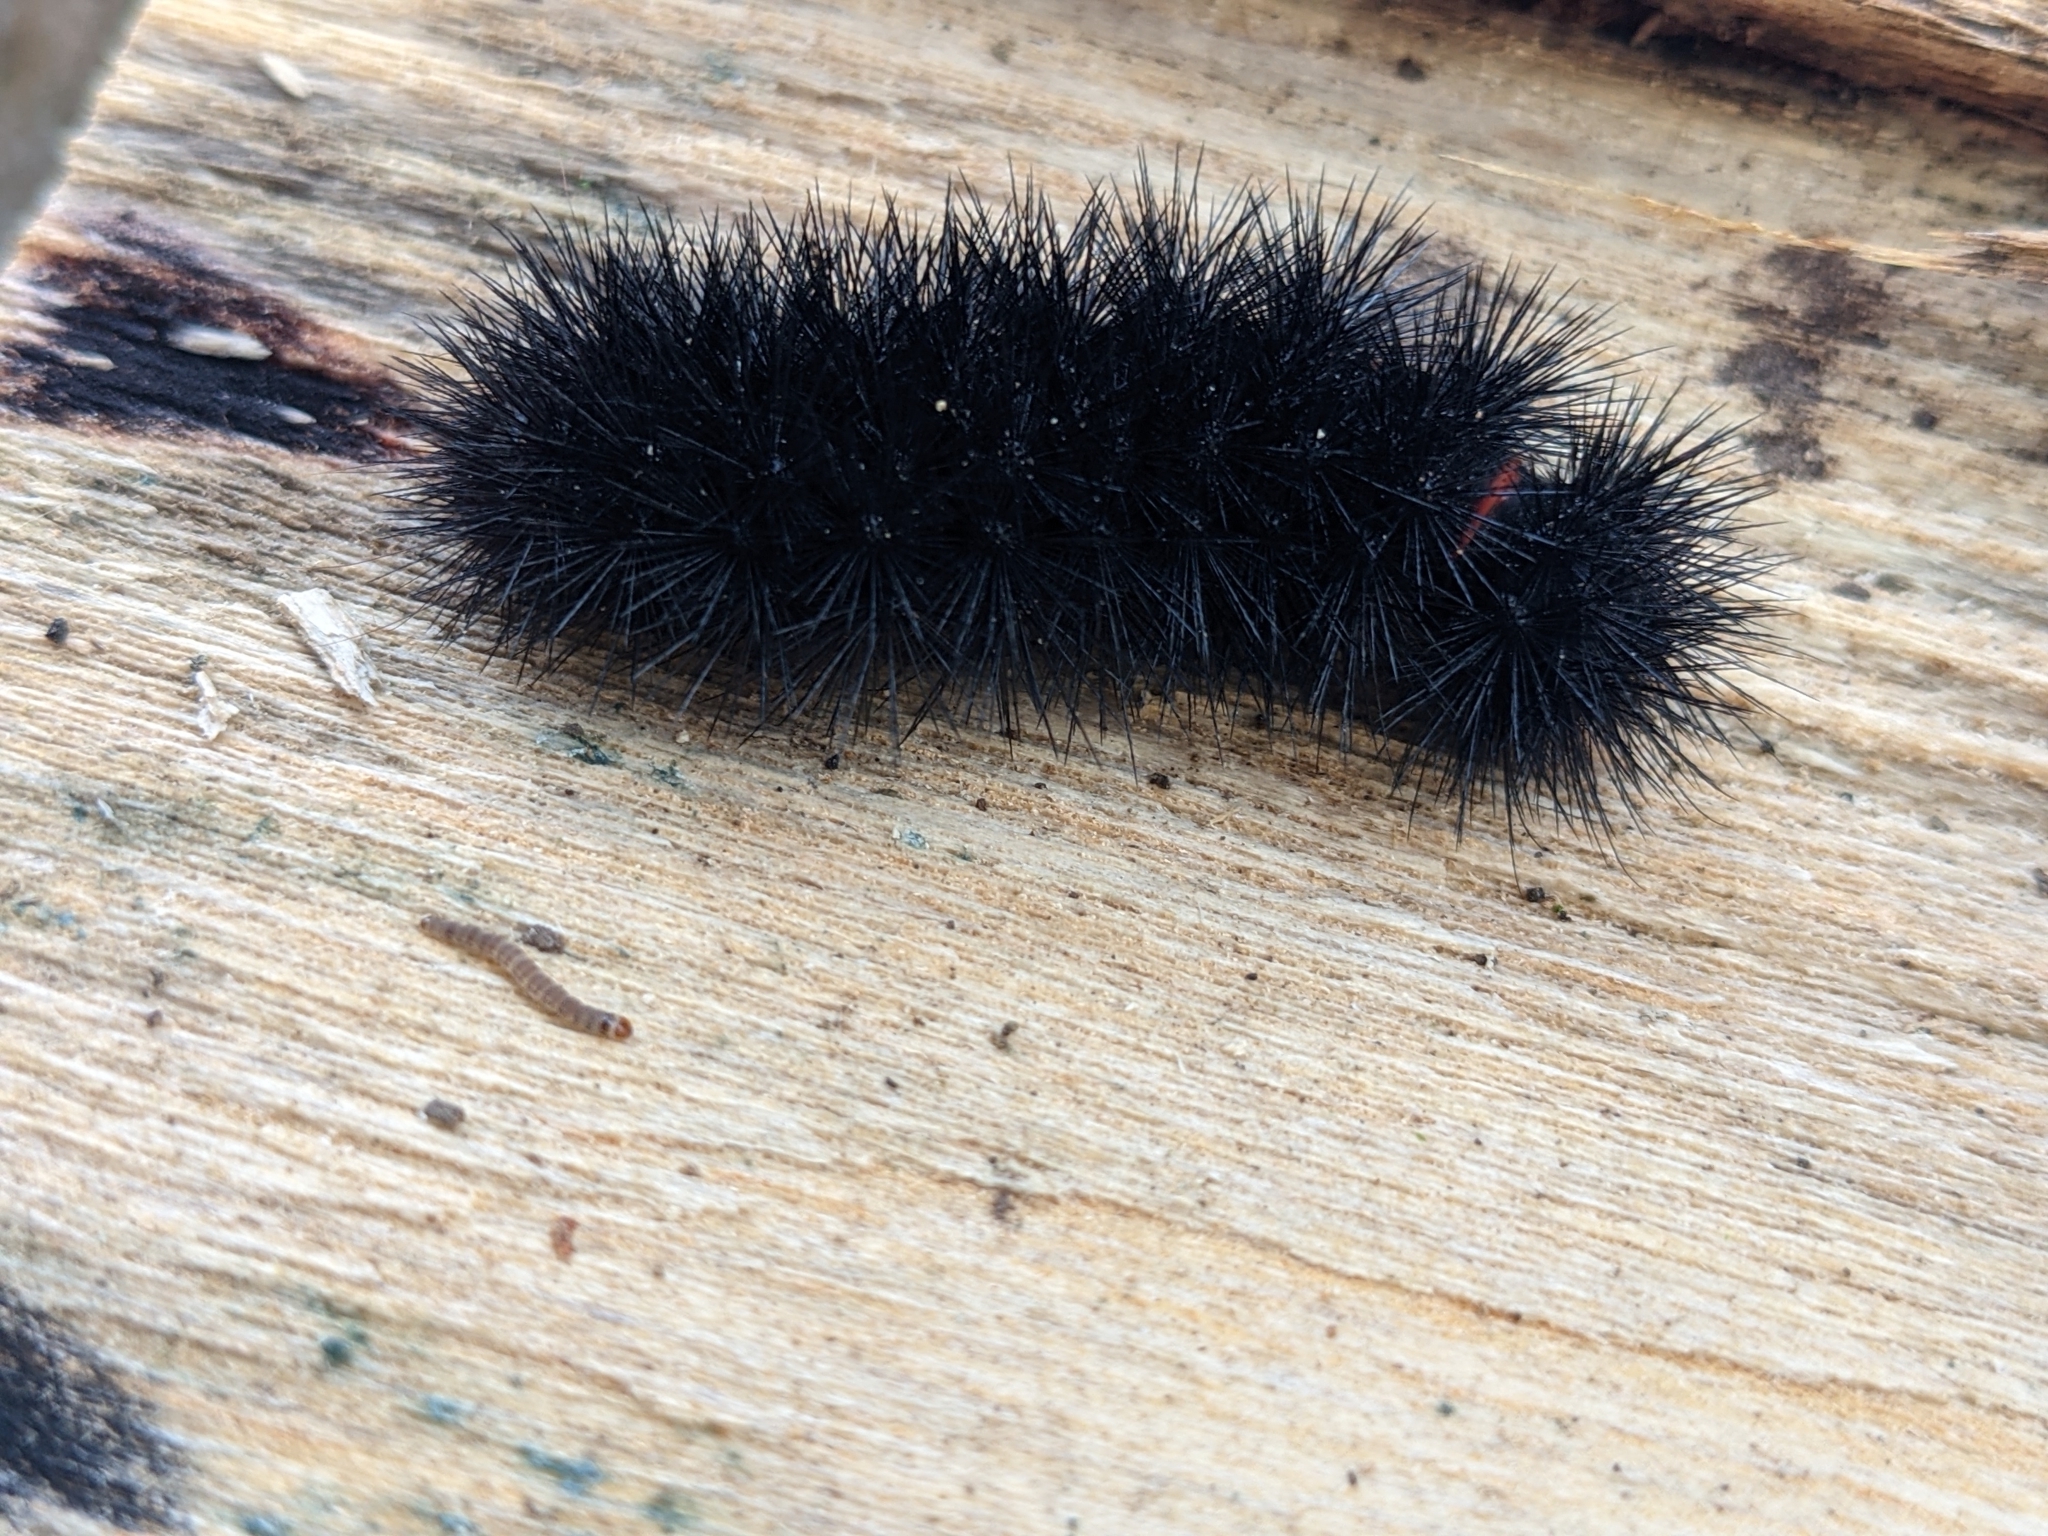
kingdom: Animalia
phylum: Arthropoda
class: Insecta
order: Lepidoptera
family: Erebidae
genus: Hypercompe
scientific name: Hypercompe scribonia
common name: Giant leopard moth
